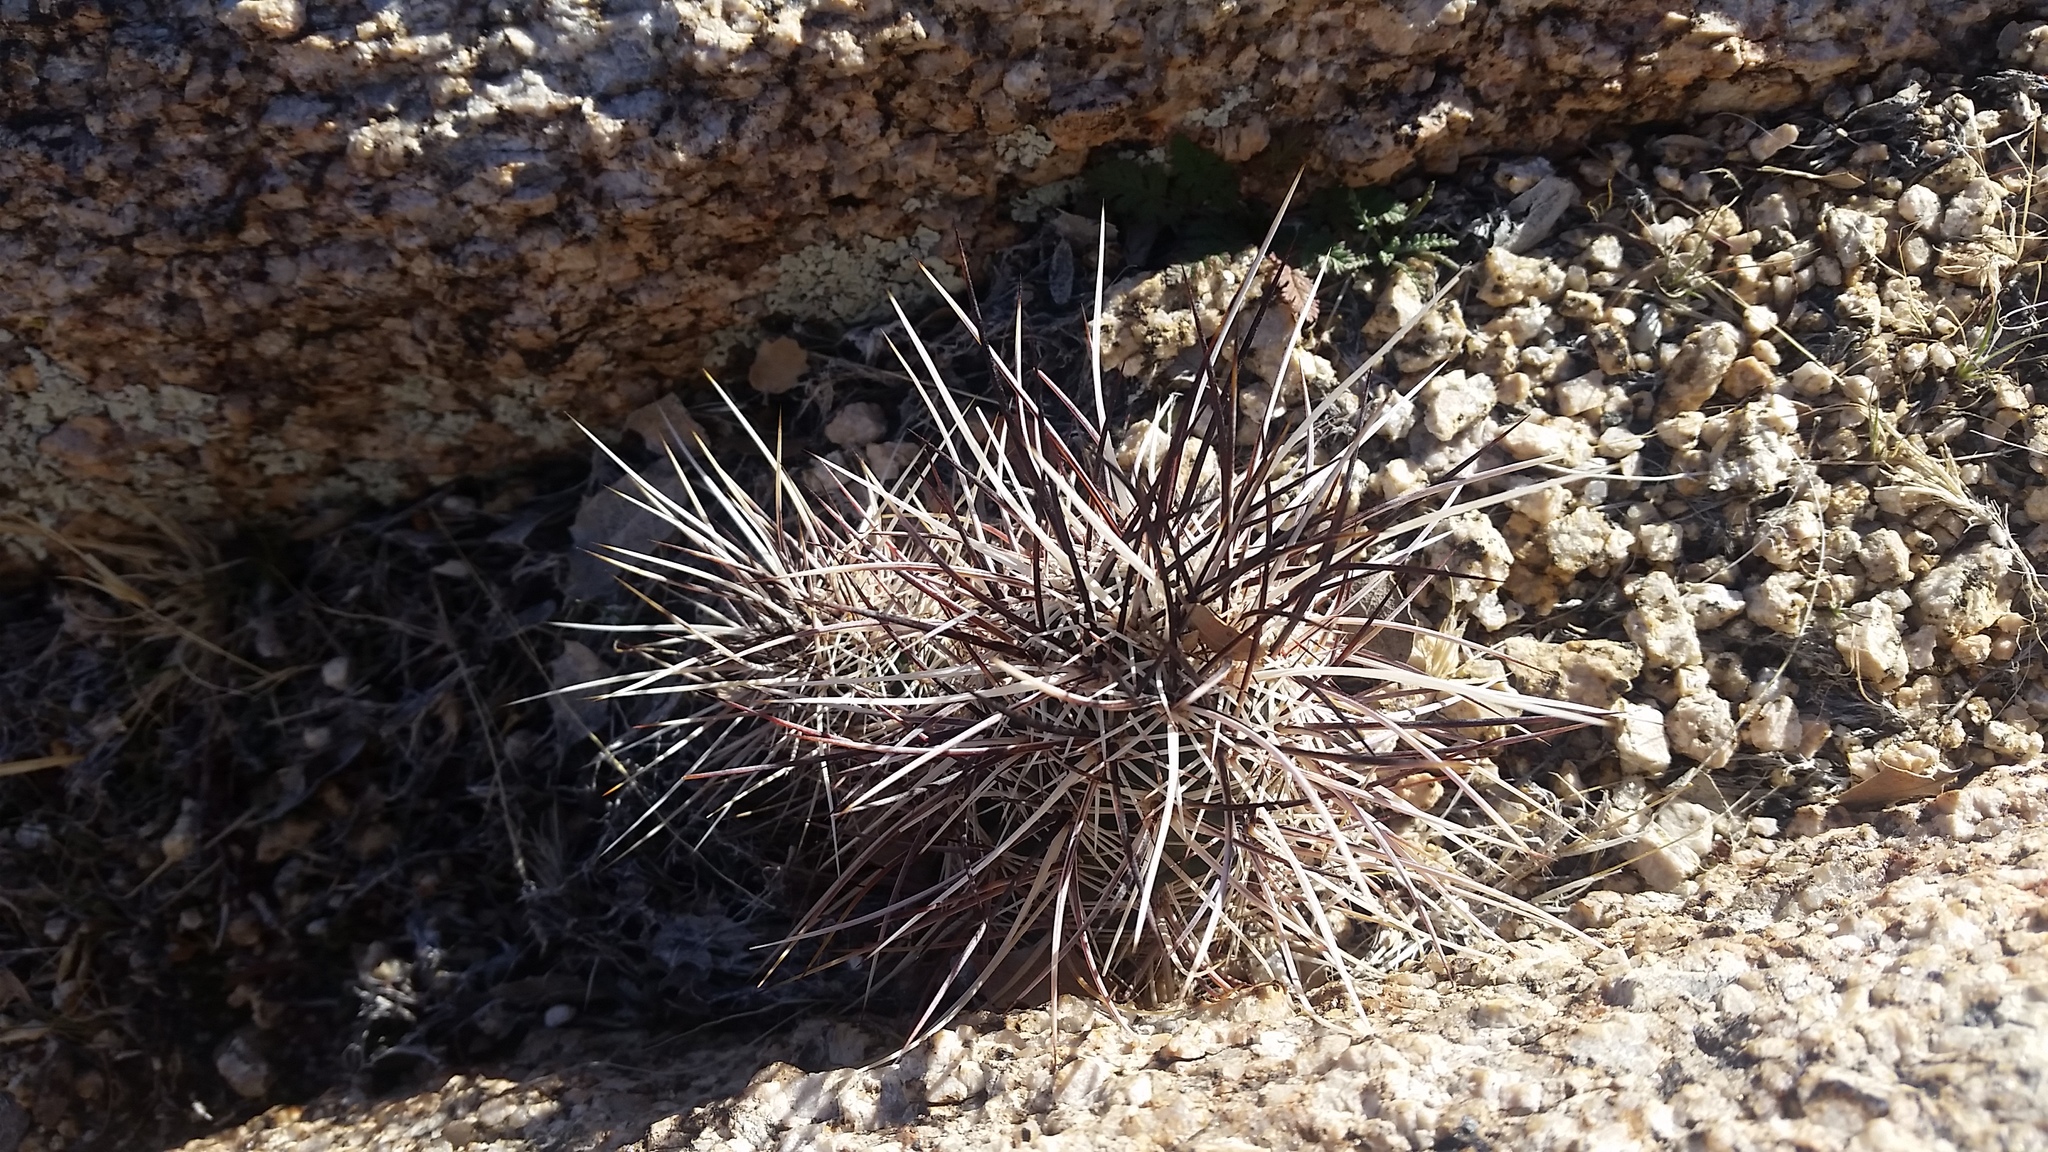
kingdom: Plantae
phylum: Tracheophyta
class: Magnoliopsida
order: Caryophyllales
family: Cactaceae
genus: Echinocereus
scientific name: Echinocereus engelmannii
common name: Engelmann's hedgehog cactus
